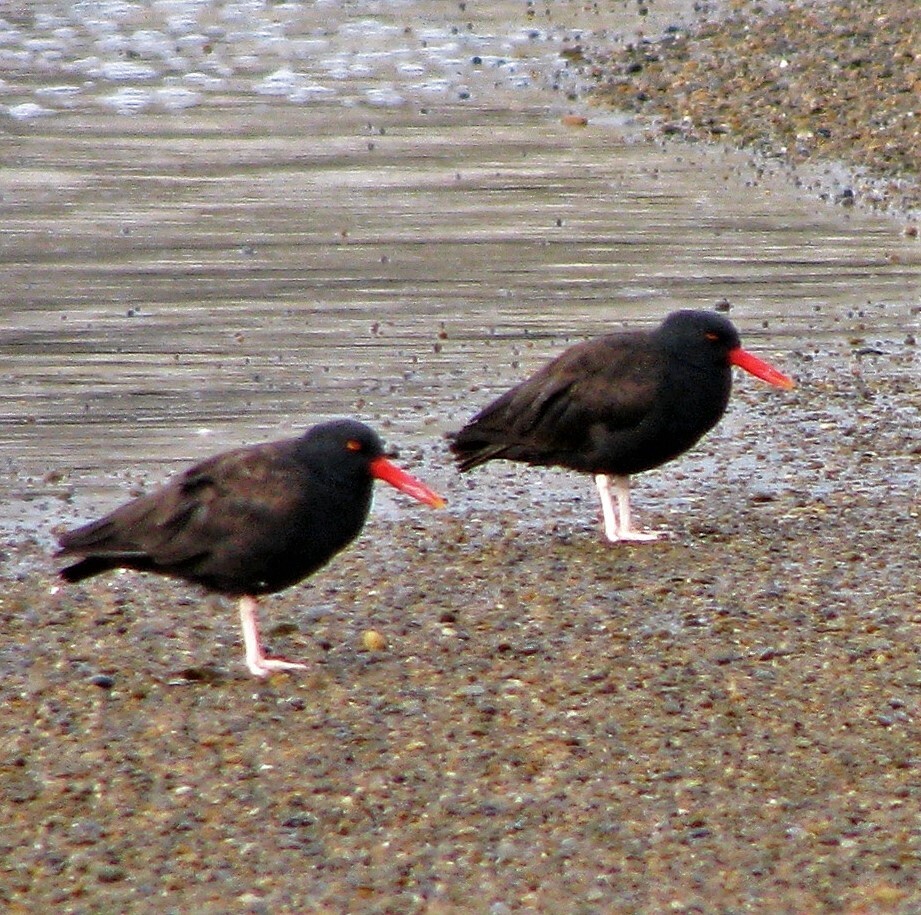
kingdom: Animalia
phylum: Chordata
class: Aves
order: Charadriiformes
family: Haematopodidae
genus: Haematopus
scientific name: Haematopus ater
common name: Blackish oystercatcher
